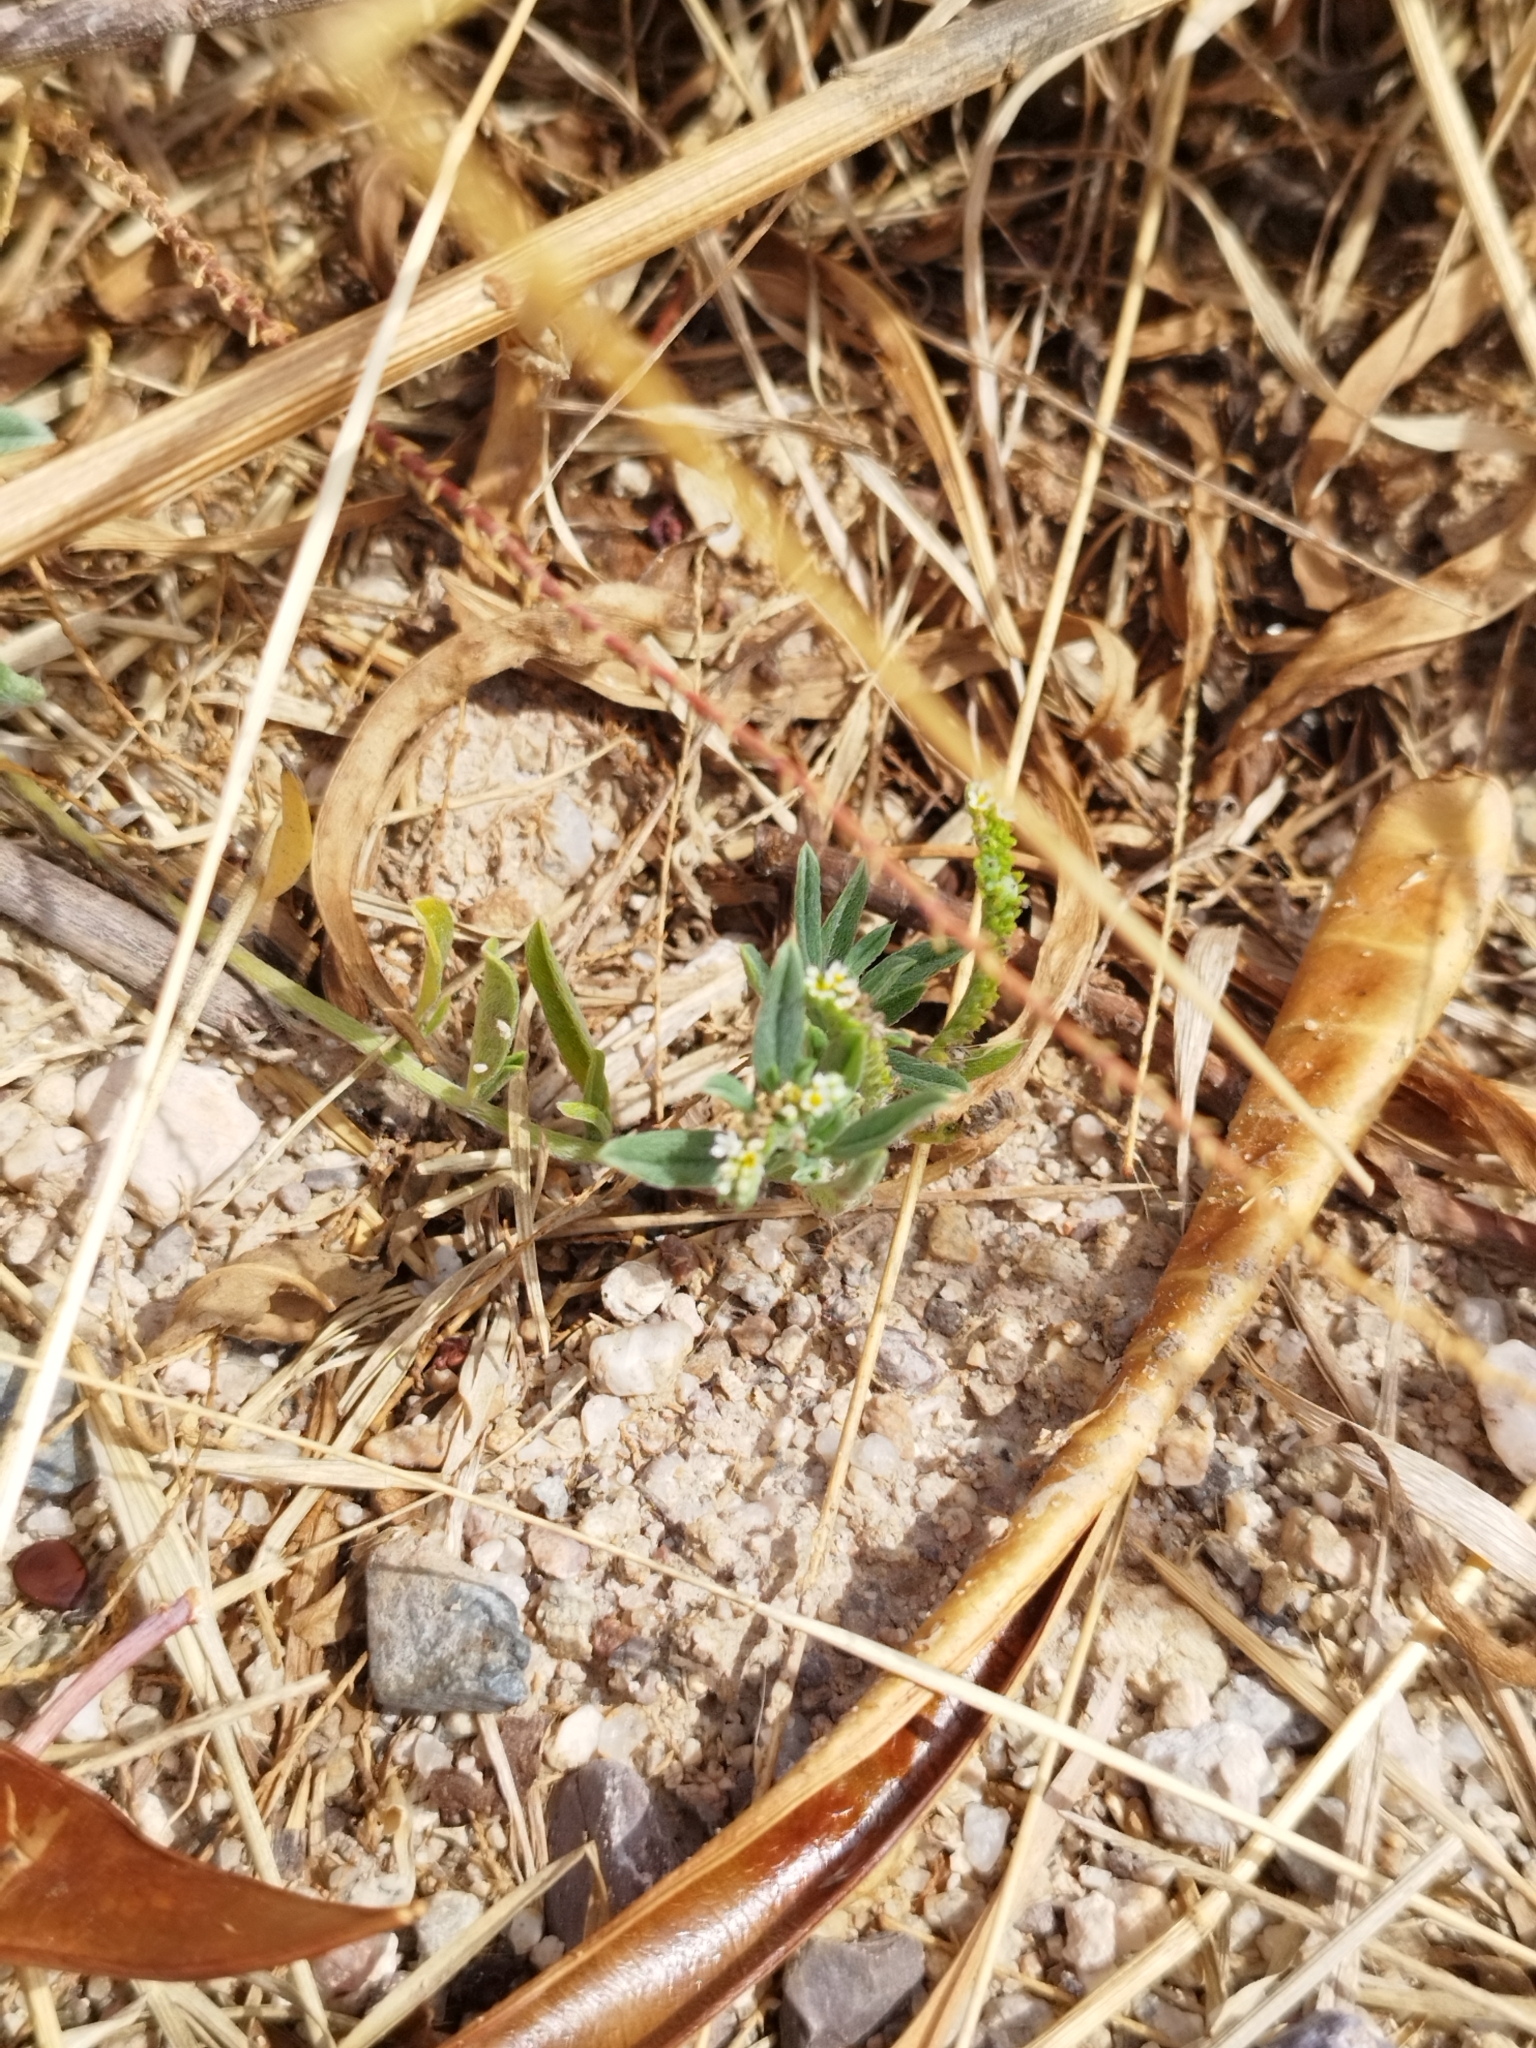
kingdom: Plantae
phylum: Tracheophyta
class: Magnoliopsida
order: Boraginales
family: Heliotropiaceae
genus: Euploca
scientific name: Euploca procumbens
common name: Fourspike heliotrope
